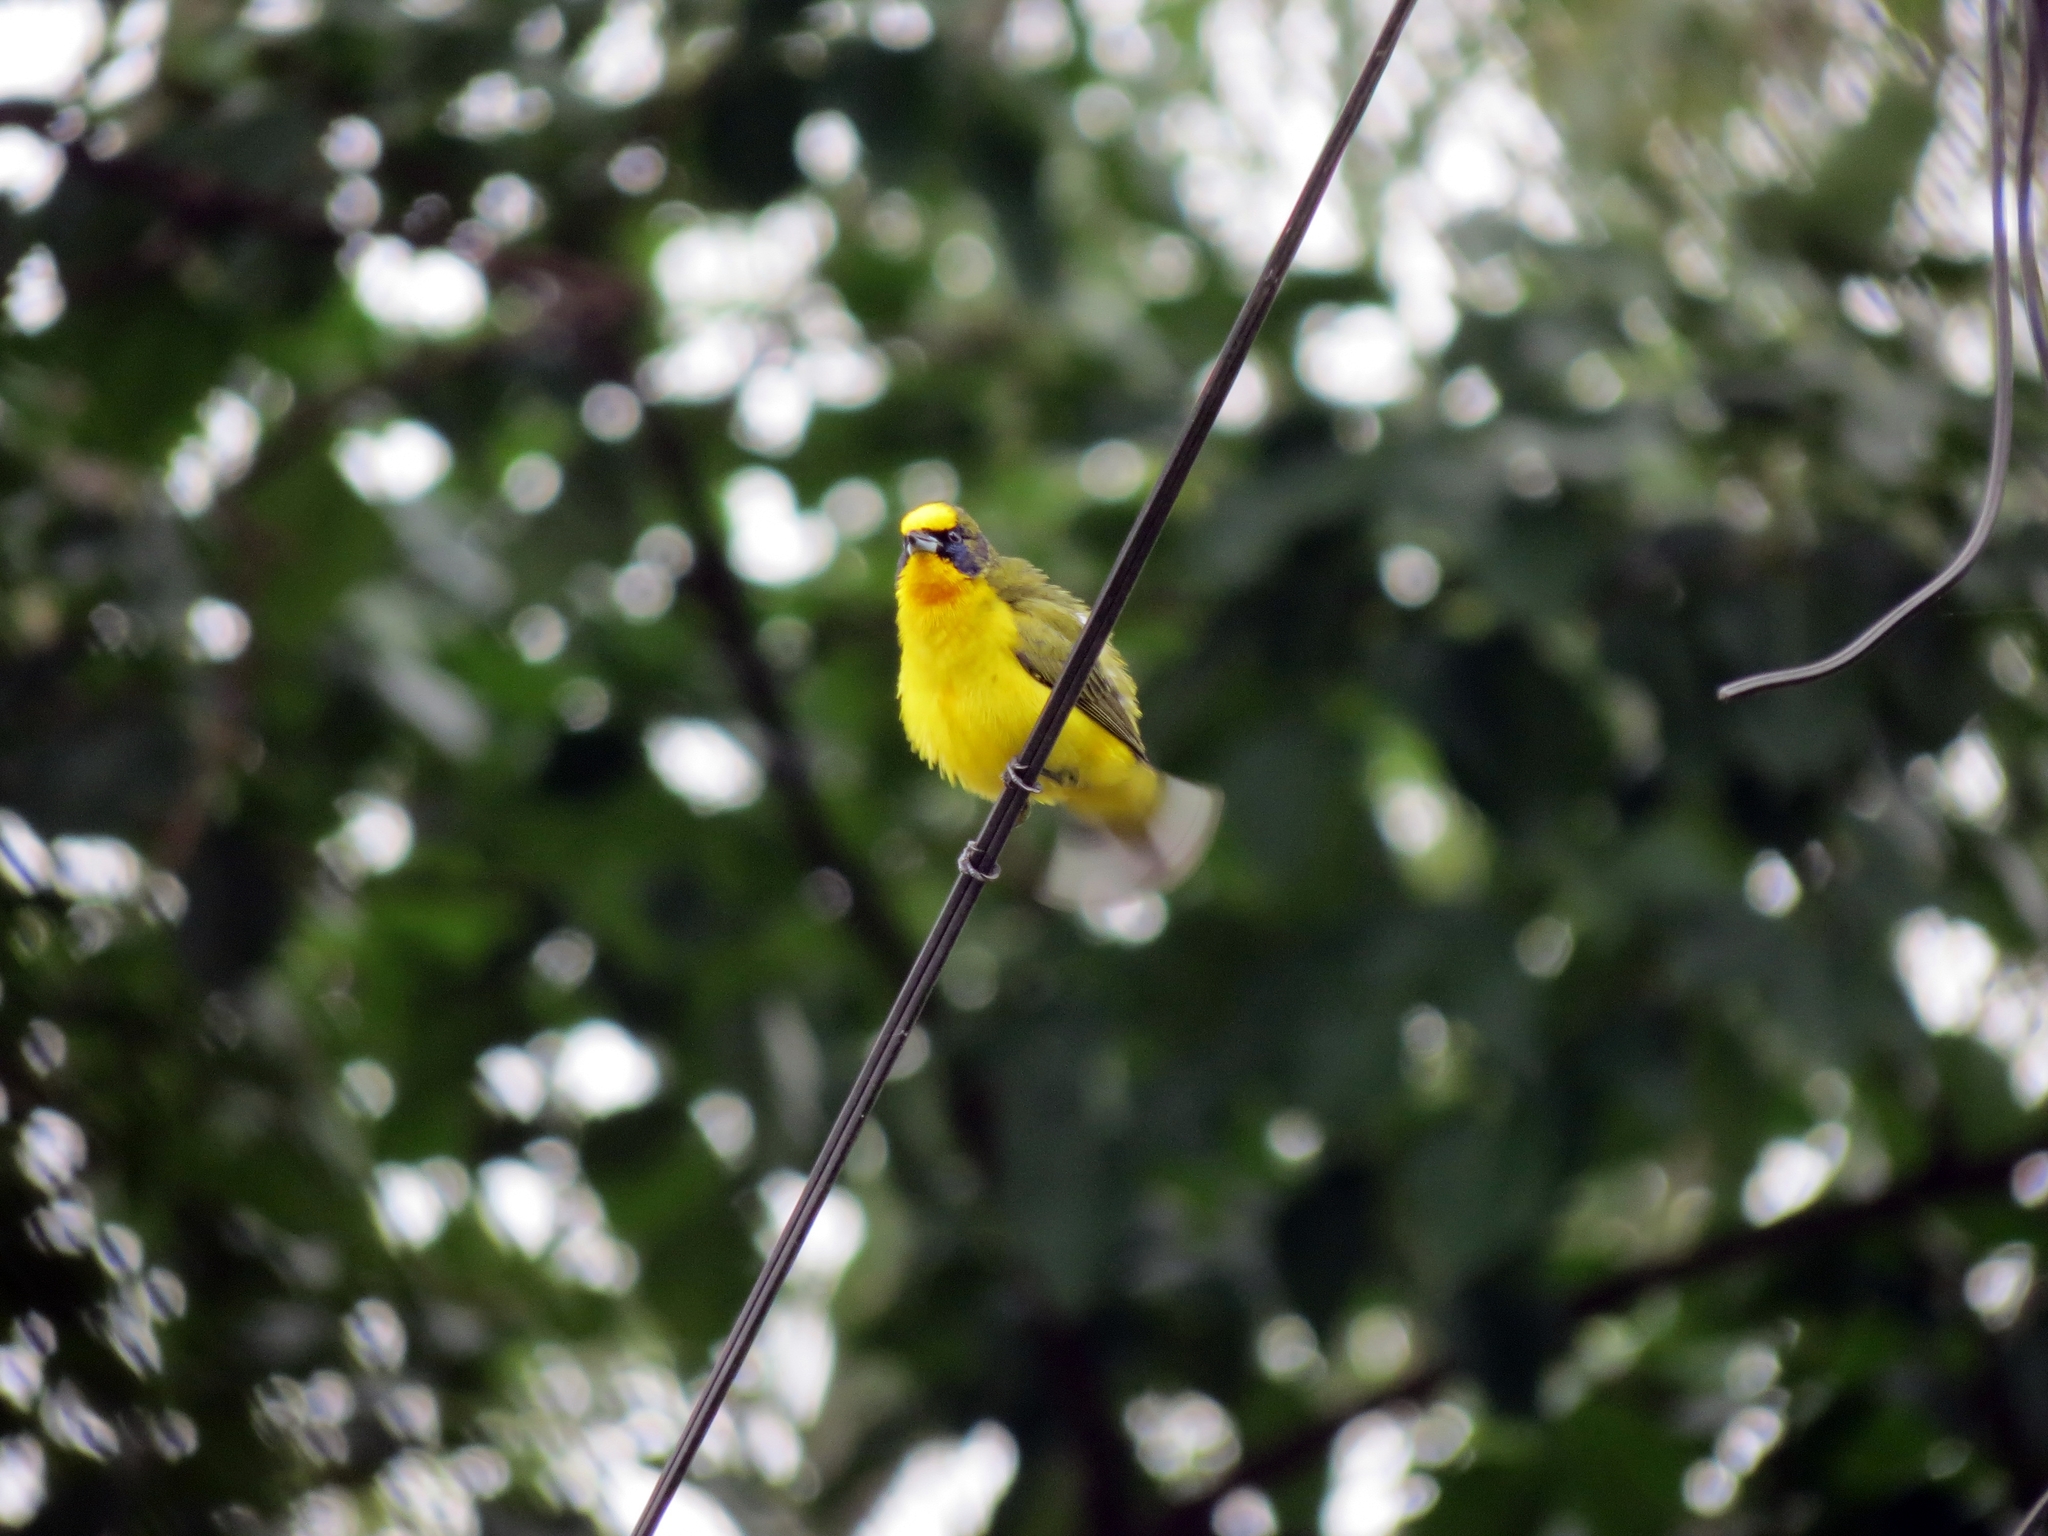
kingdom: Animalia
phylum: Chordata
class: Aves
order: Passeriformes
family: Fringillidae
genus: Euphonia
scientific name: Euphonia laniirostris
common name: Thick-billed euphonia
